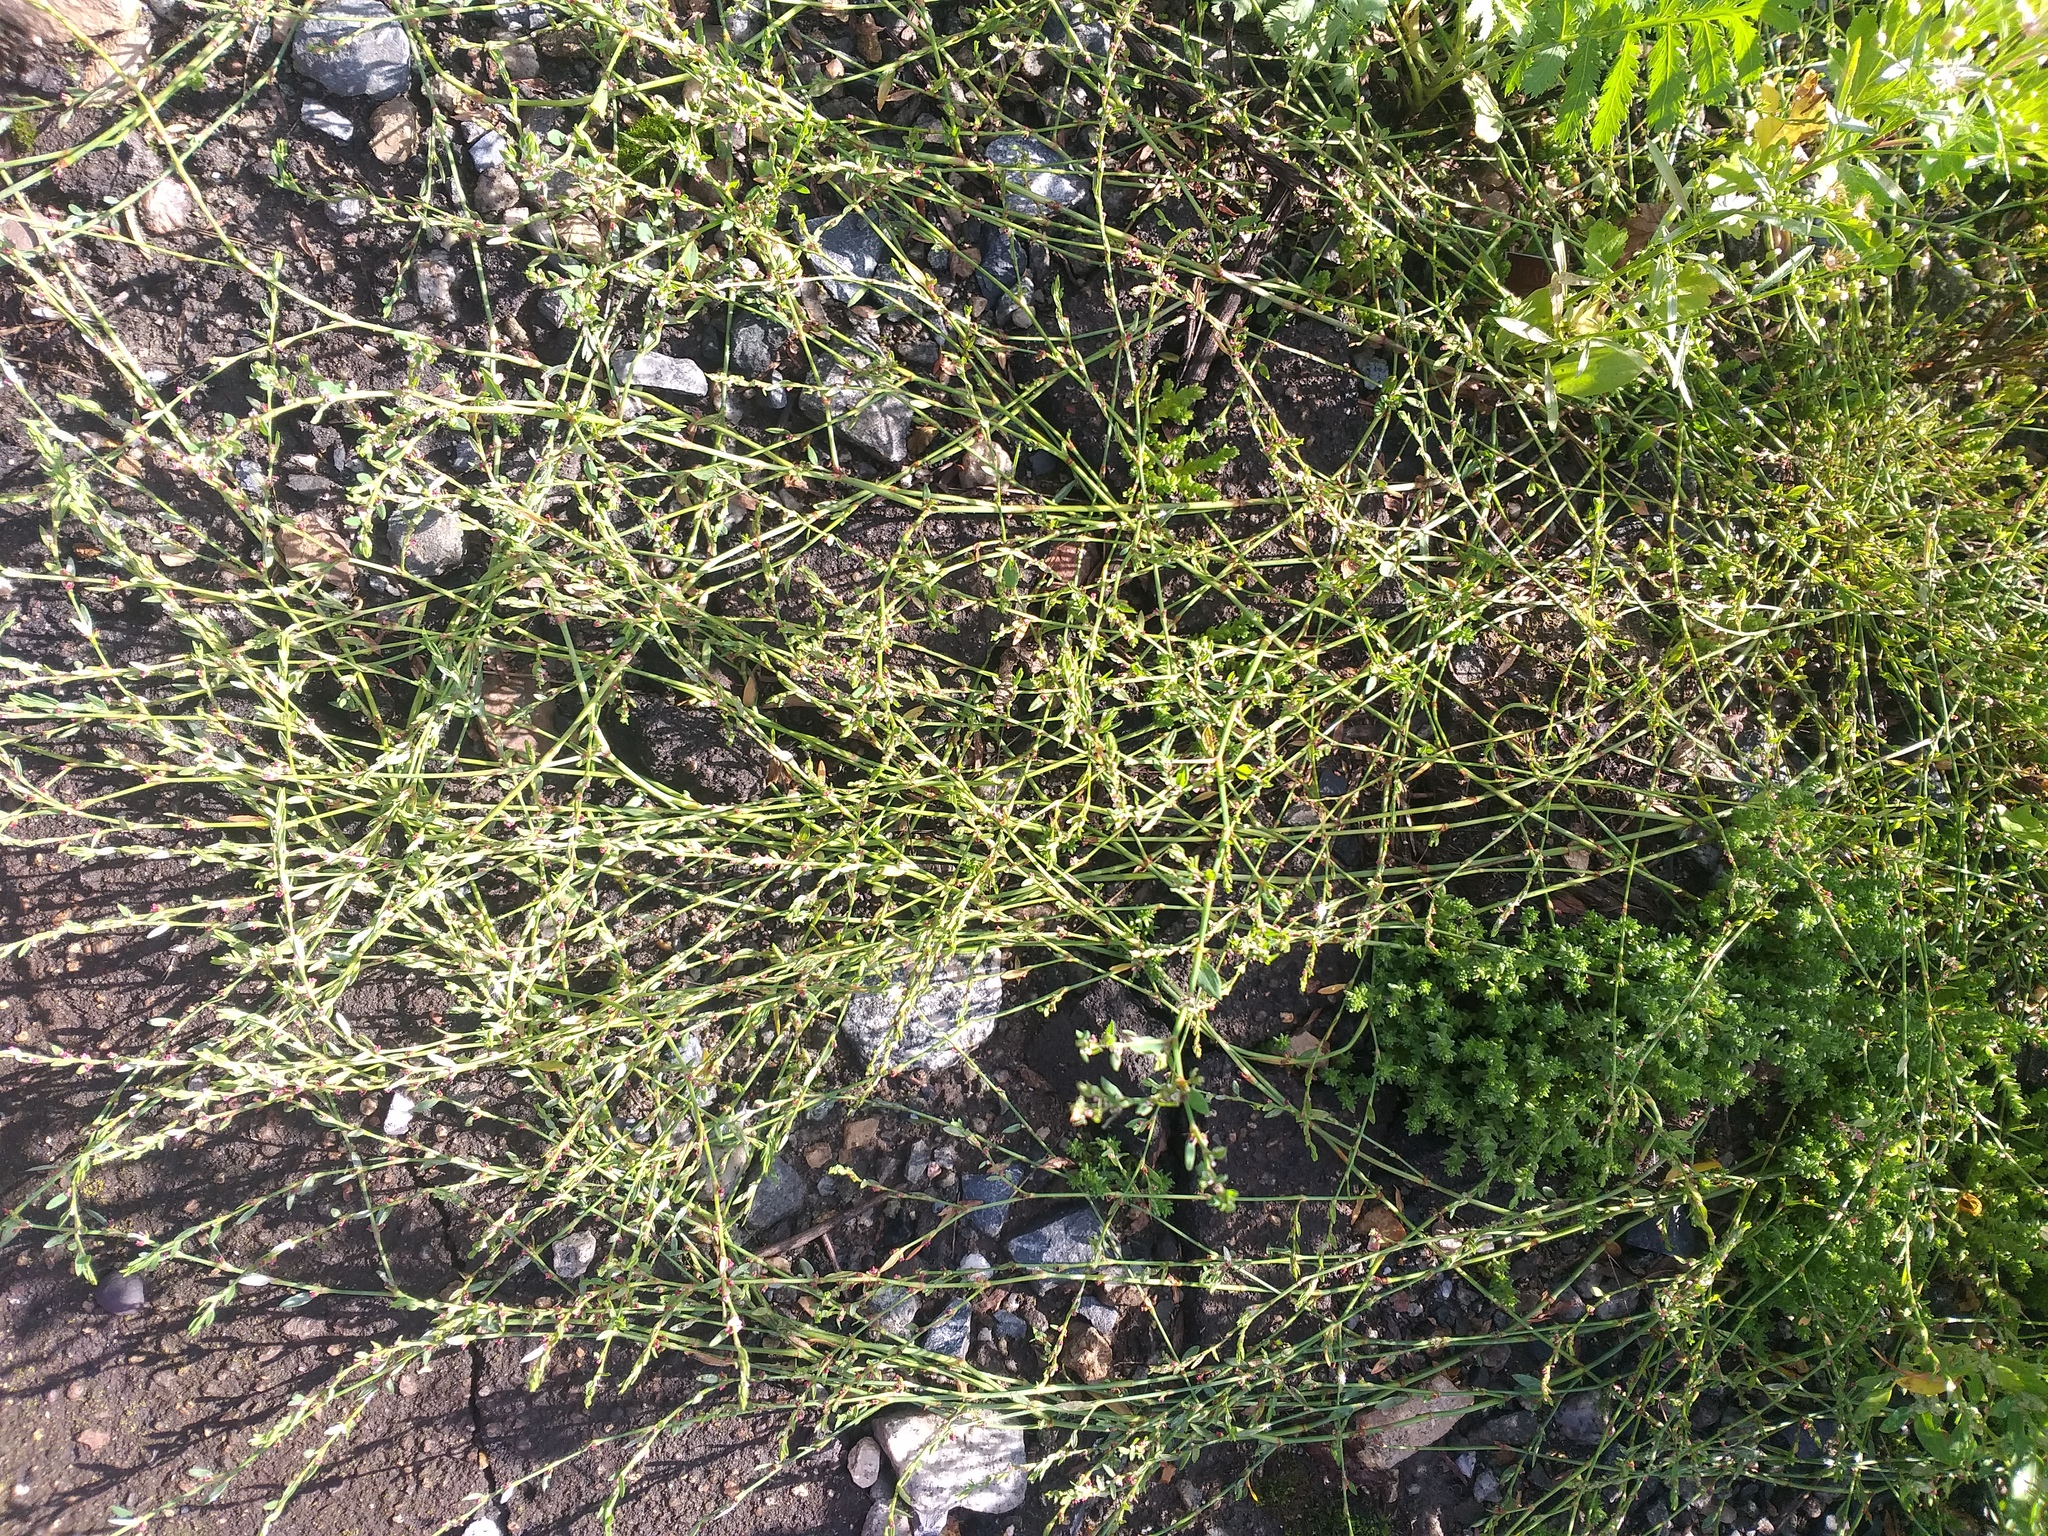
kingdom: Plantae
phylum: Tracheophyta
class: Magnoliopsida
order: Caryophyllales
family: Polygonaceae
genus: Polygonum
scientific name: Polygonum
